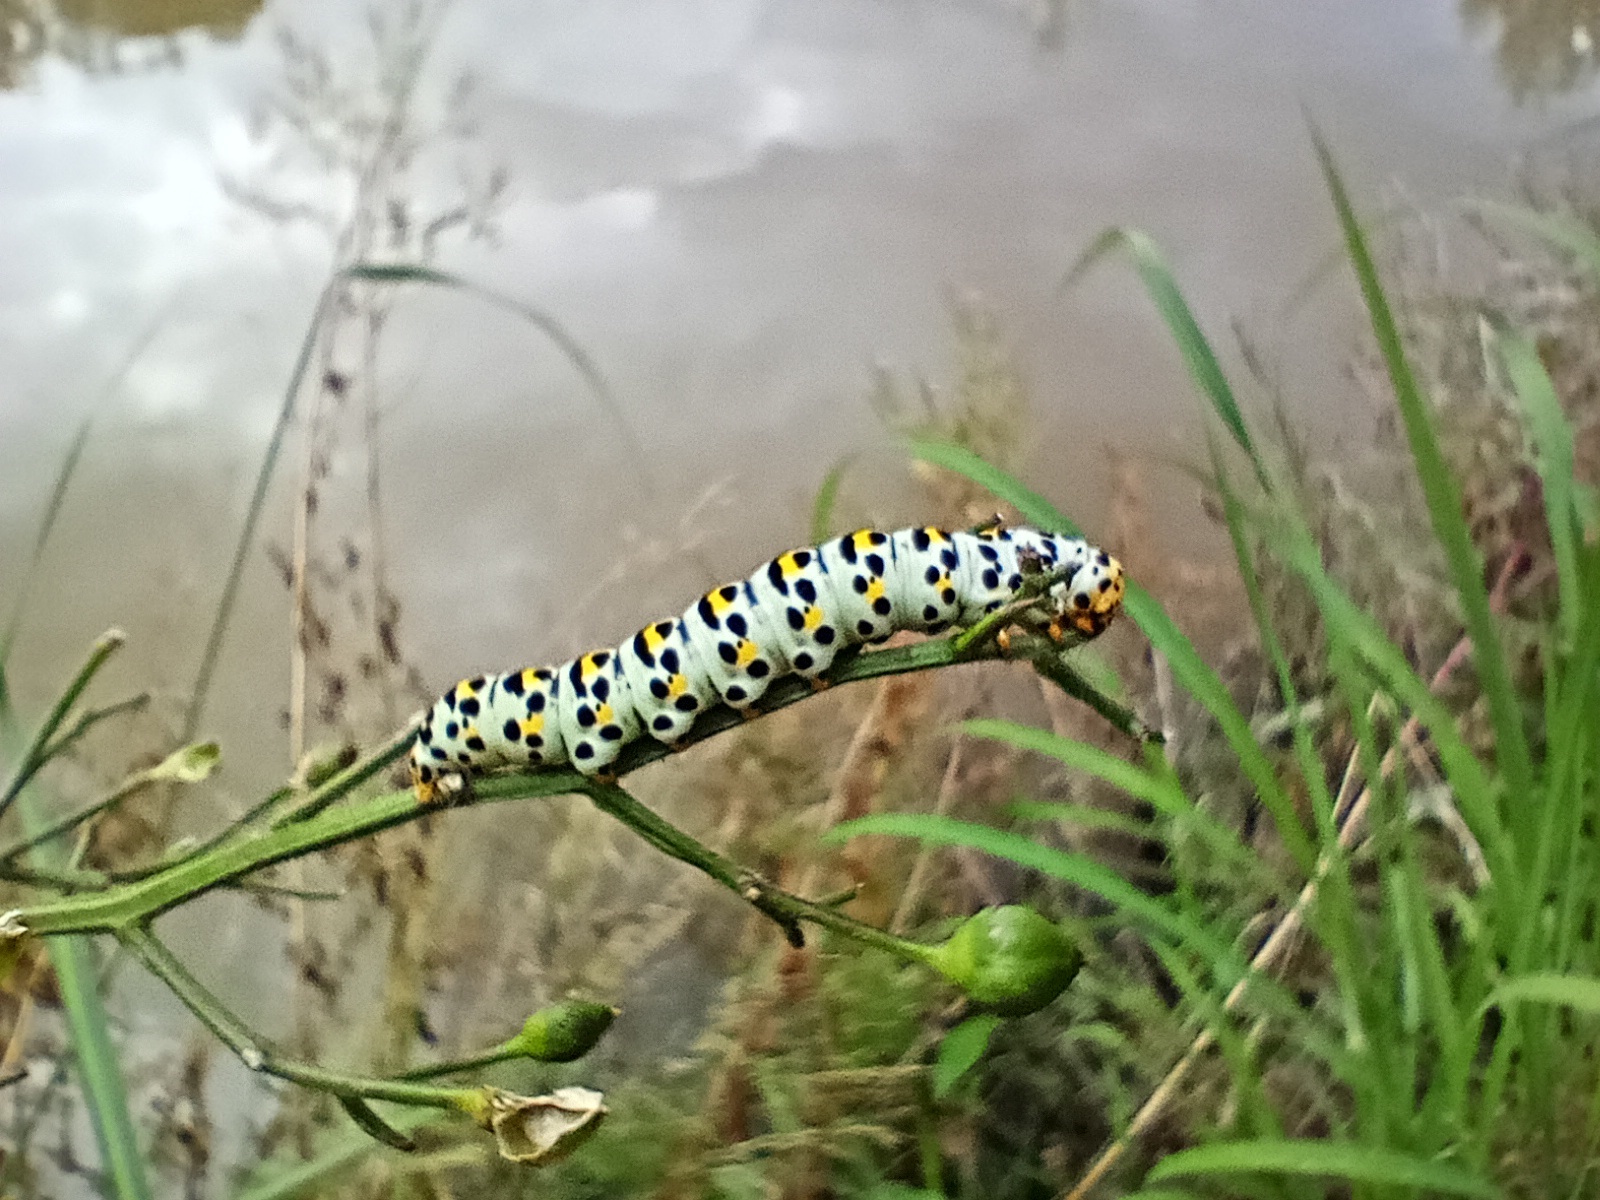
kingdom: Animalia
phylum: Arthropoda
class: Insecta
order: Lepidoptera
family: Noctuidae
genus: Shargacucullia
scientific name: Shargacucullia scrophulariae
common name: Water betony
